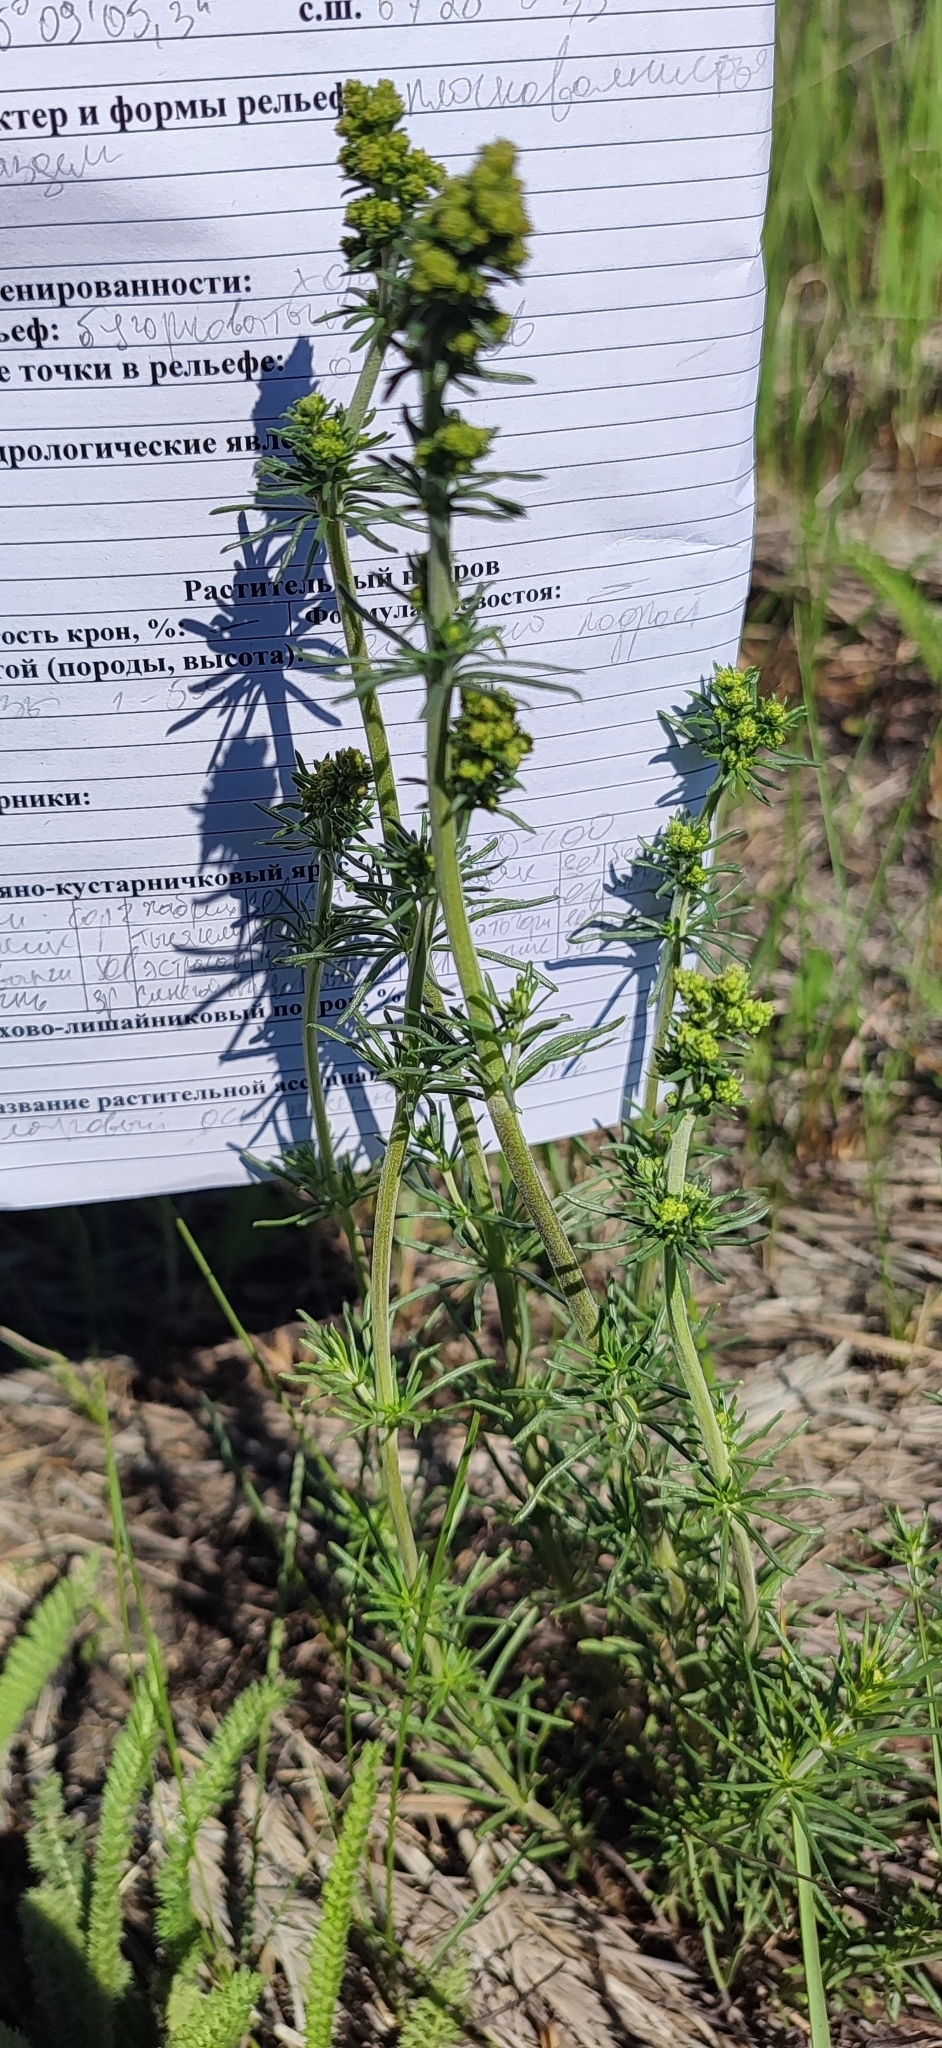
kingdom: Plantae
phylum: Tracheophyta
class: Magnoliopsida
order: Gentianales
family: Rubiaceae
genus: Galium
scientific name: Galium verum
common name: Lady's bedstraw
